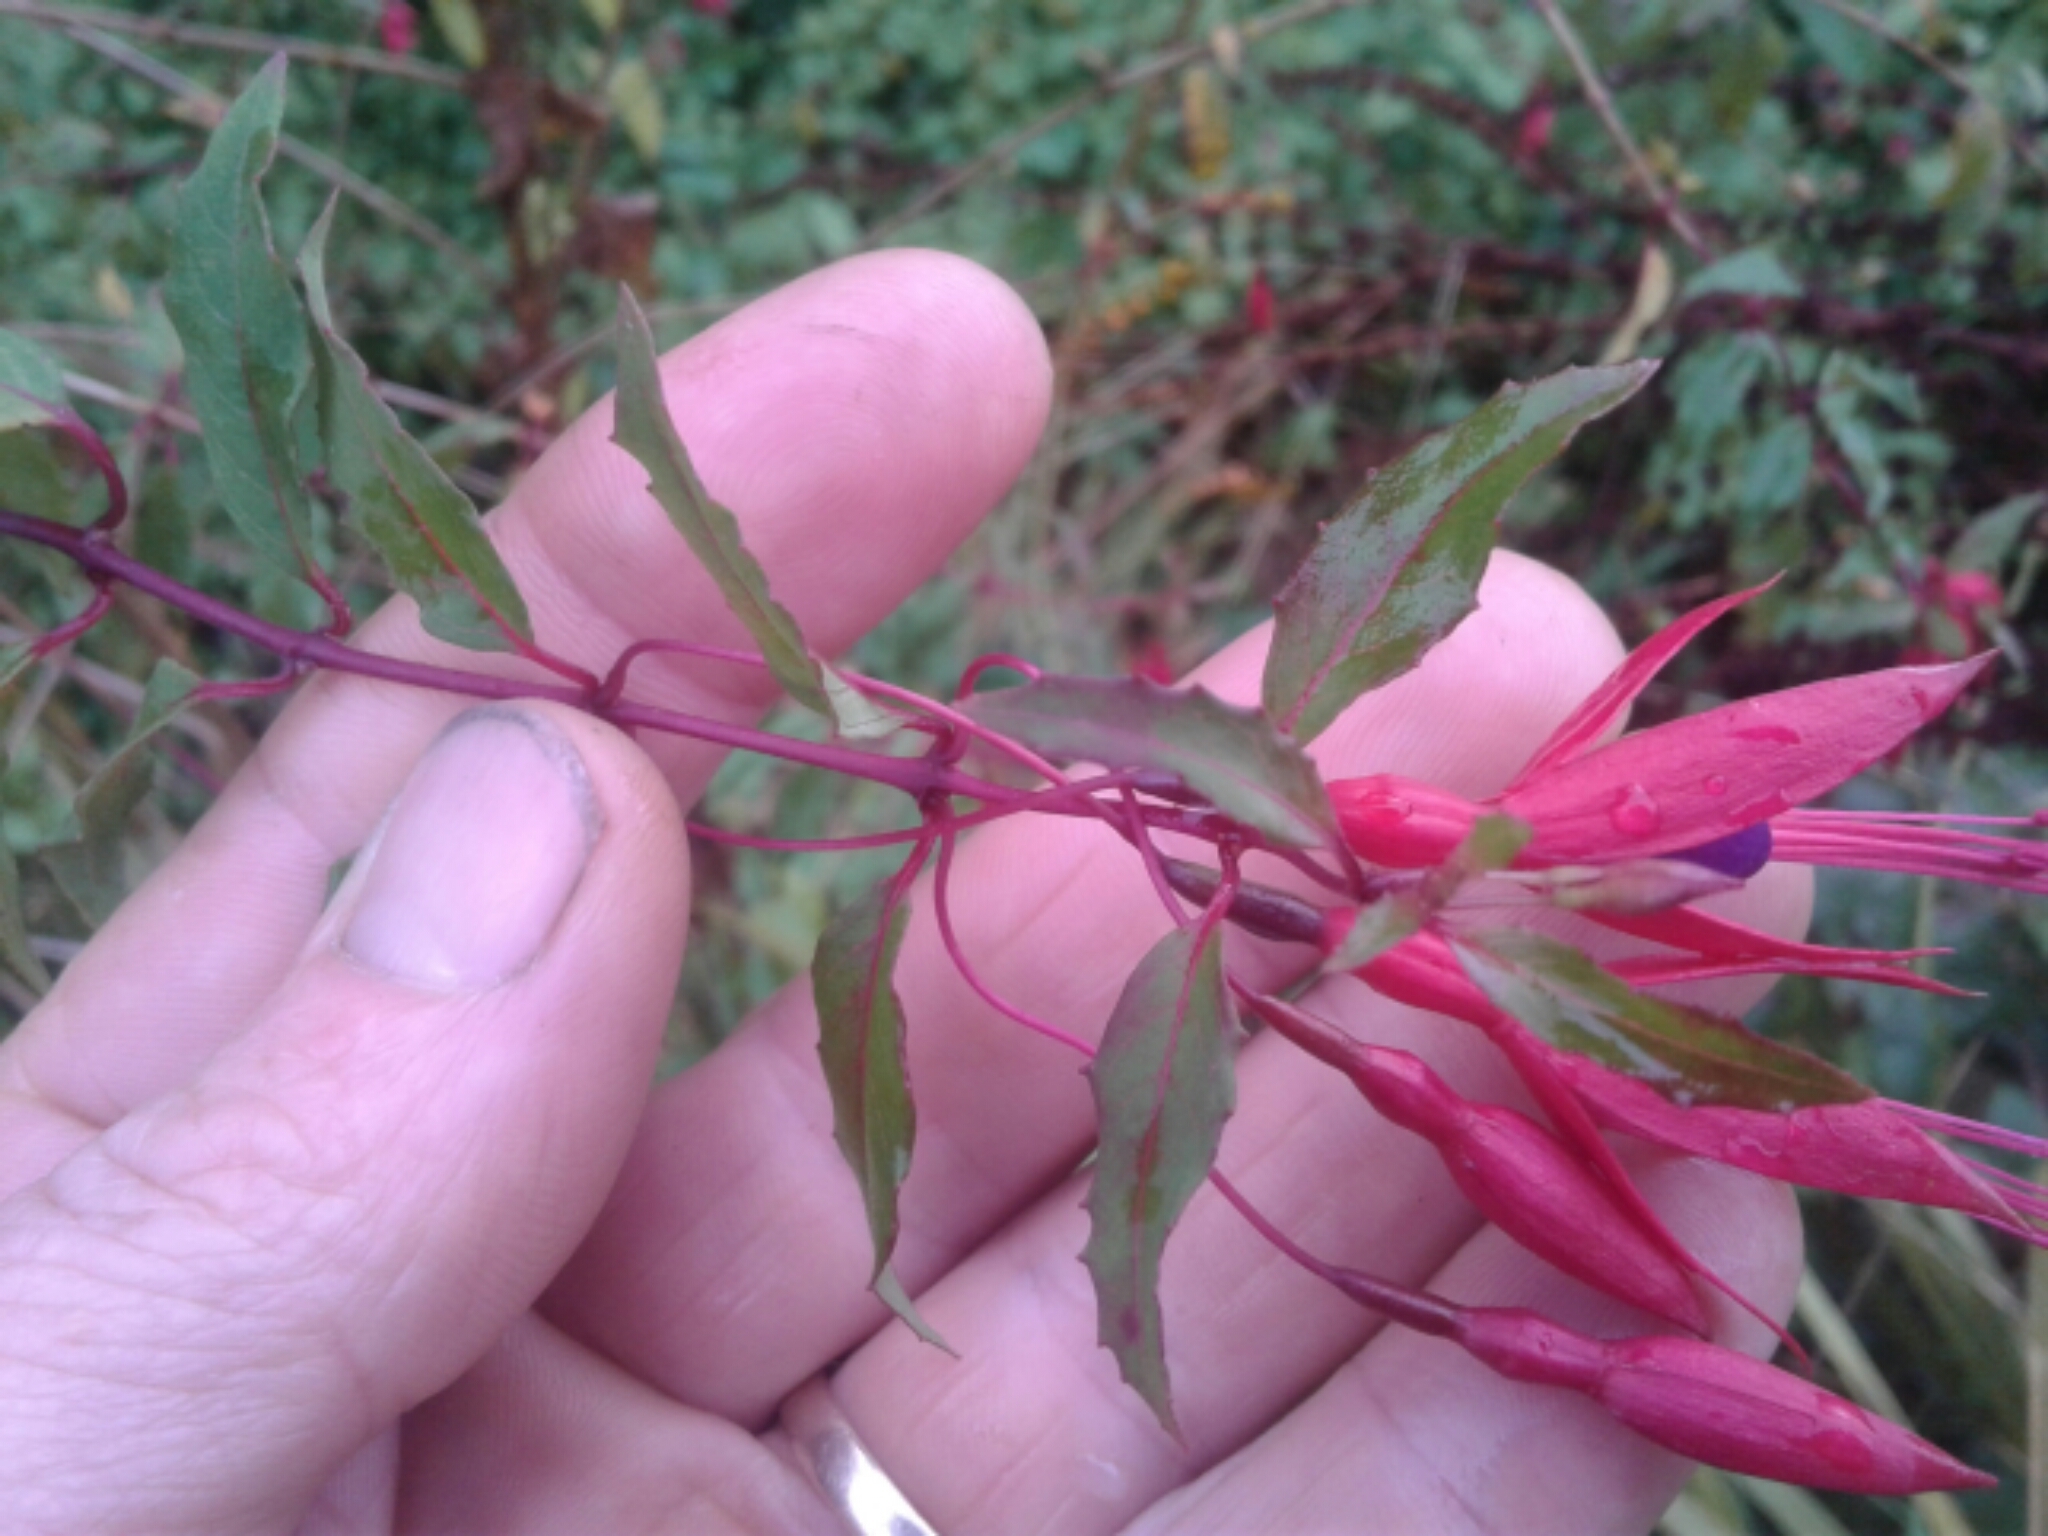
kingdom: Plantae
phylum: Tracheophyta
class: Magnoliopsida
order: Myrtales
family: Onagraceae
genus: Fuchsia
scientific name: Fuchsia magellanica
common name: Hardy fuchsia
